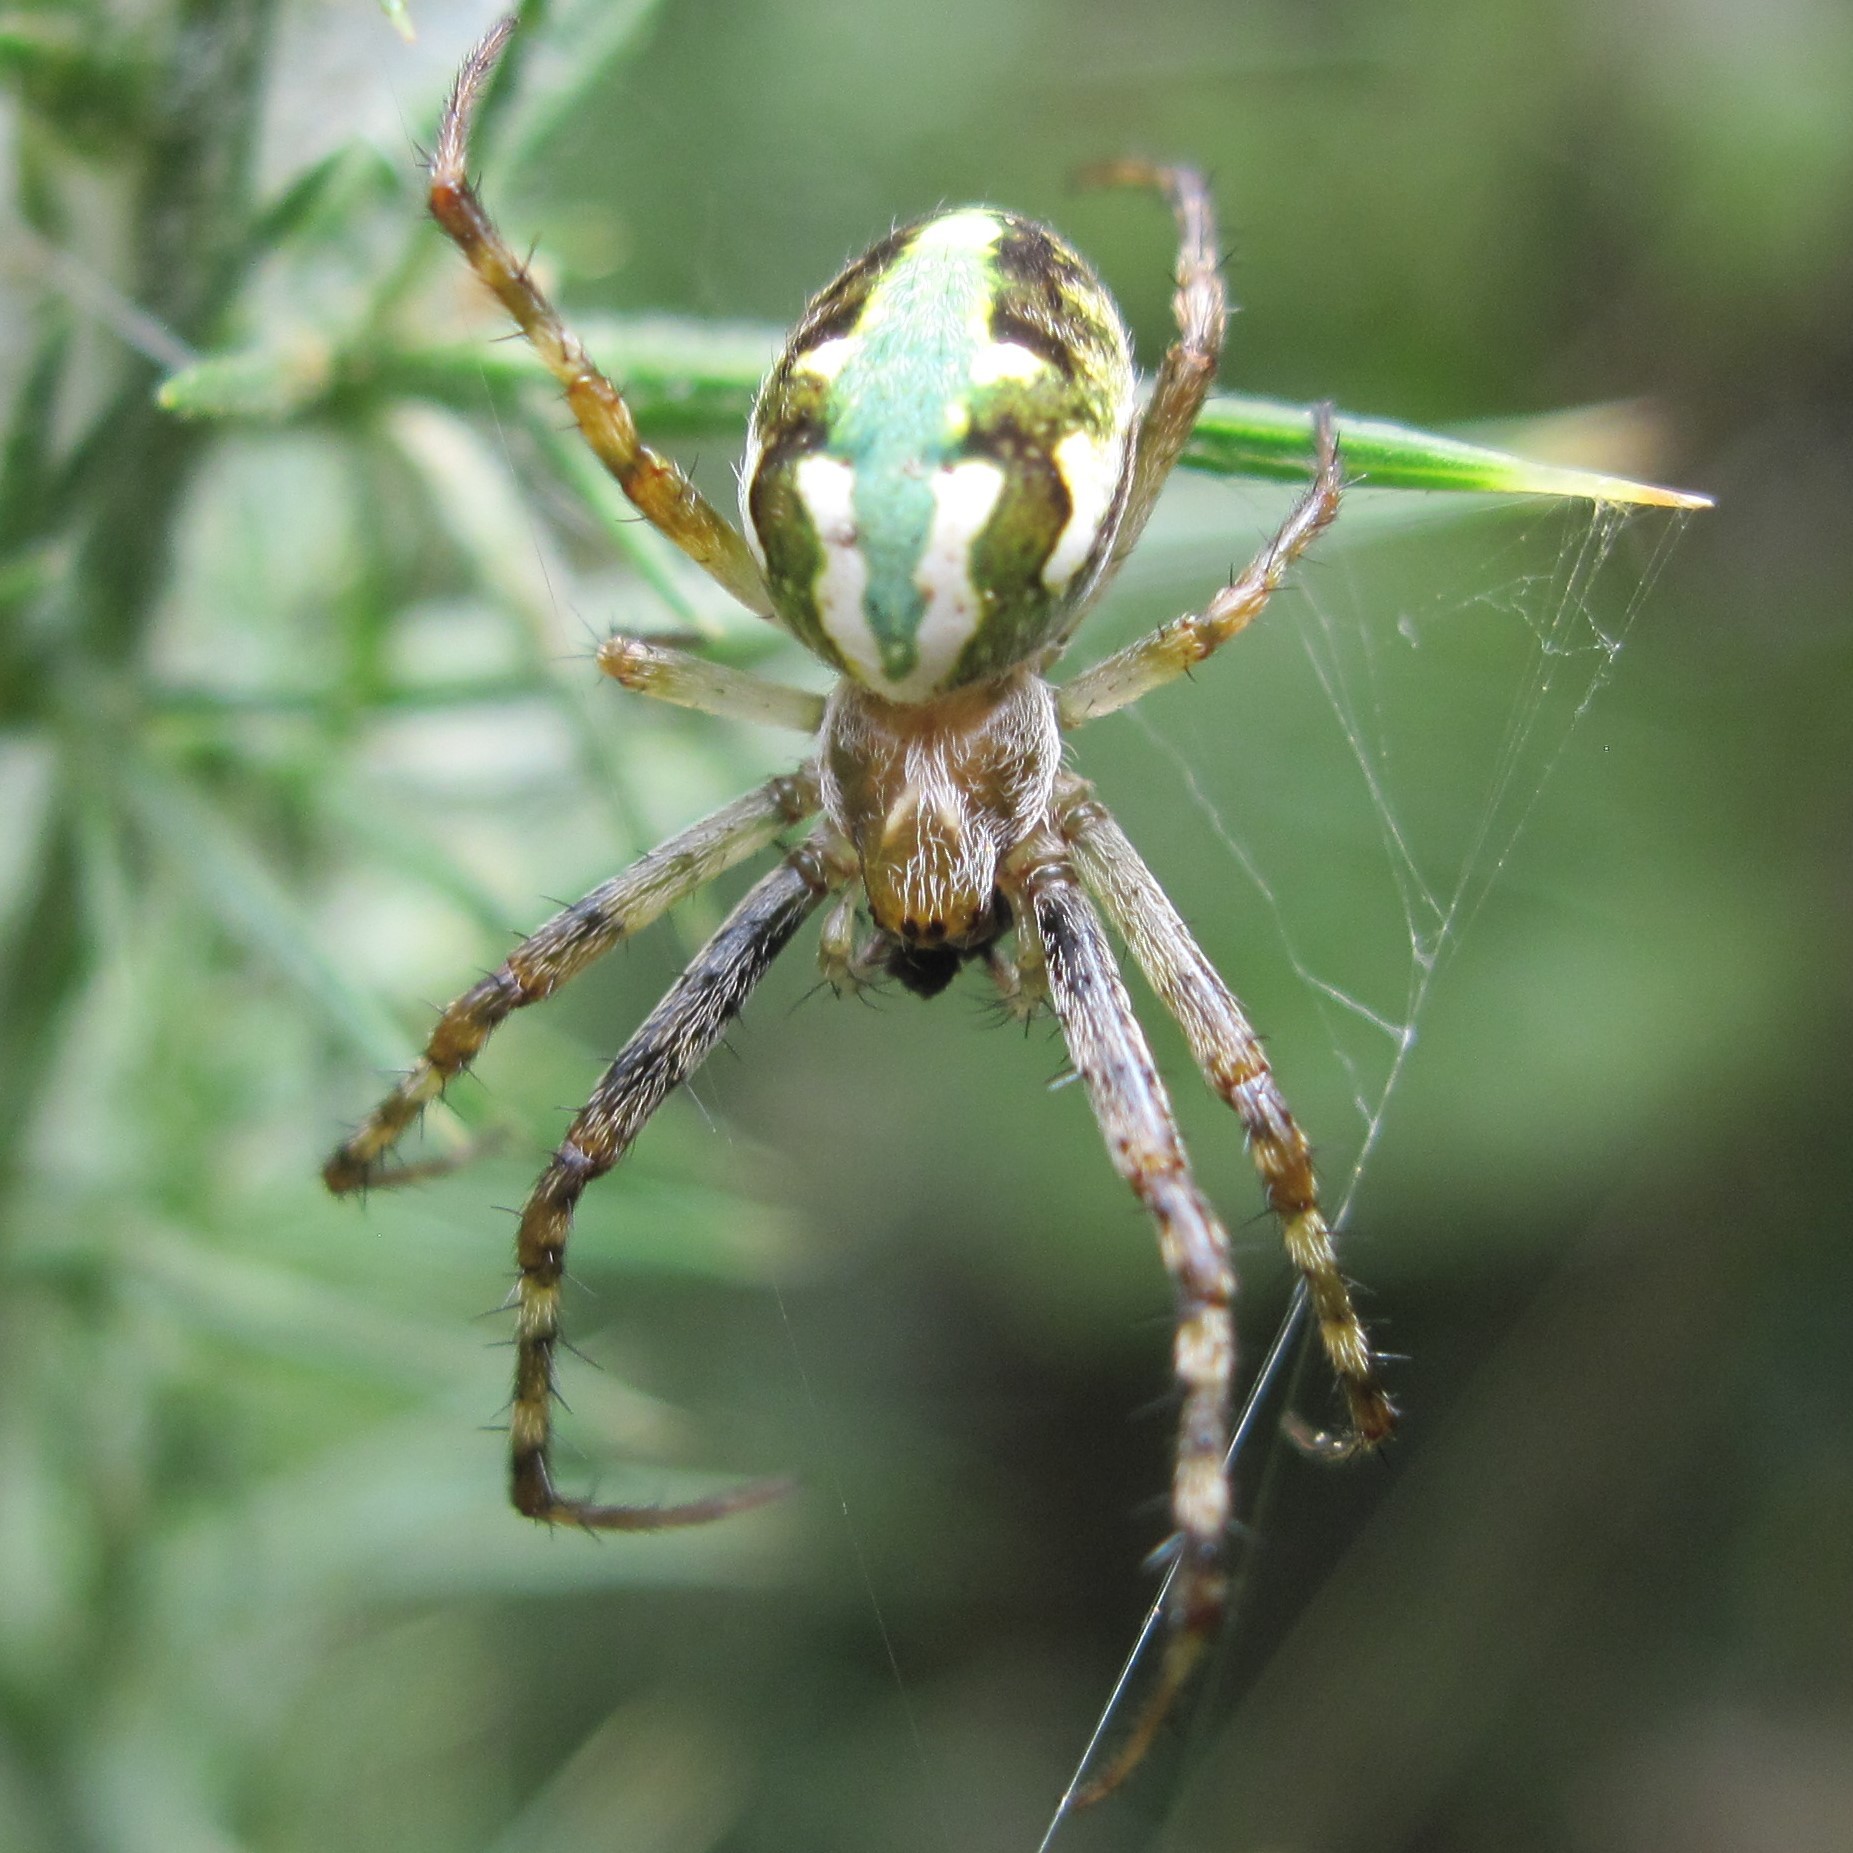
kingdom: Animalia
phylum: Arthropoda
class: Arachnida
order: Araneae
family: Araneidae
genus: Novaranea
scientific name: Novaranea queribunda
